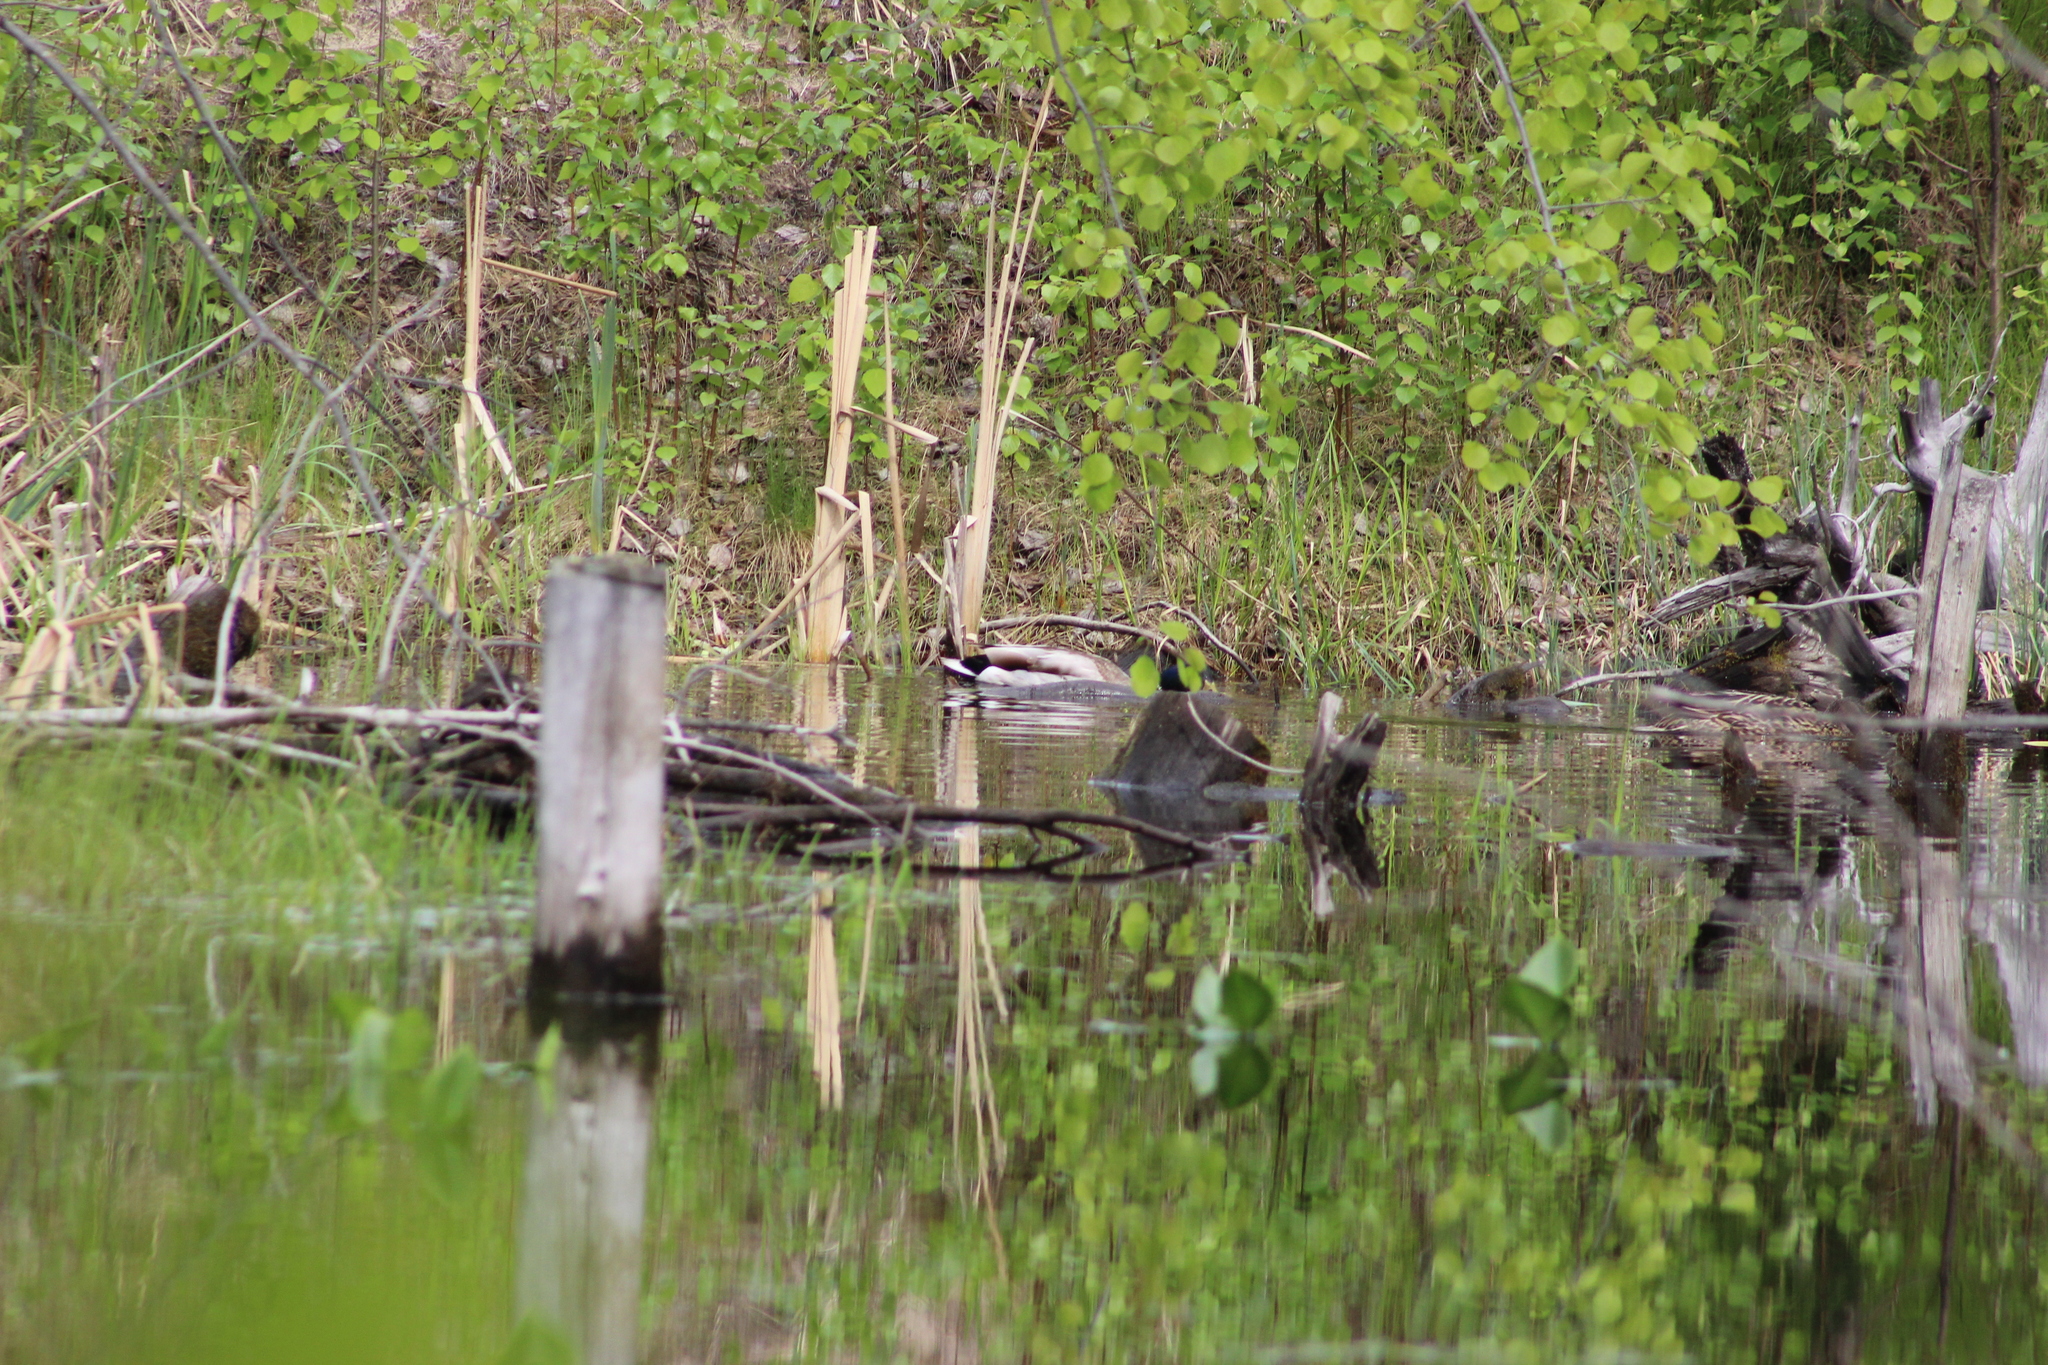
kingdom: Animalia
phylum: Chordata
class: Aves
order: Anseriformes
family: Anatidae
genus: Anas
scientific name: Anas platyrhynchos
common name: Mallard
